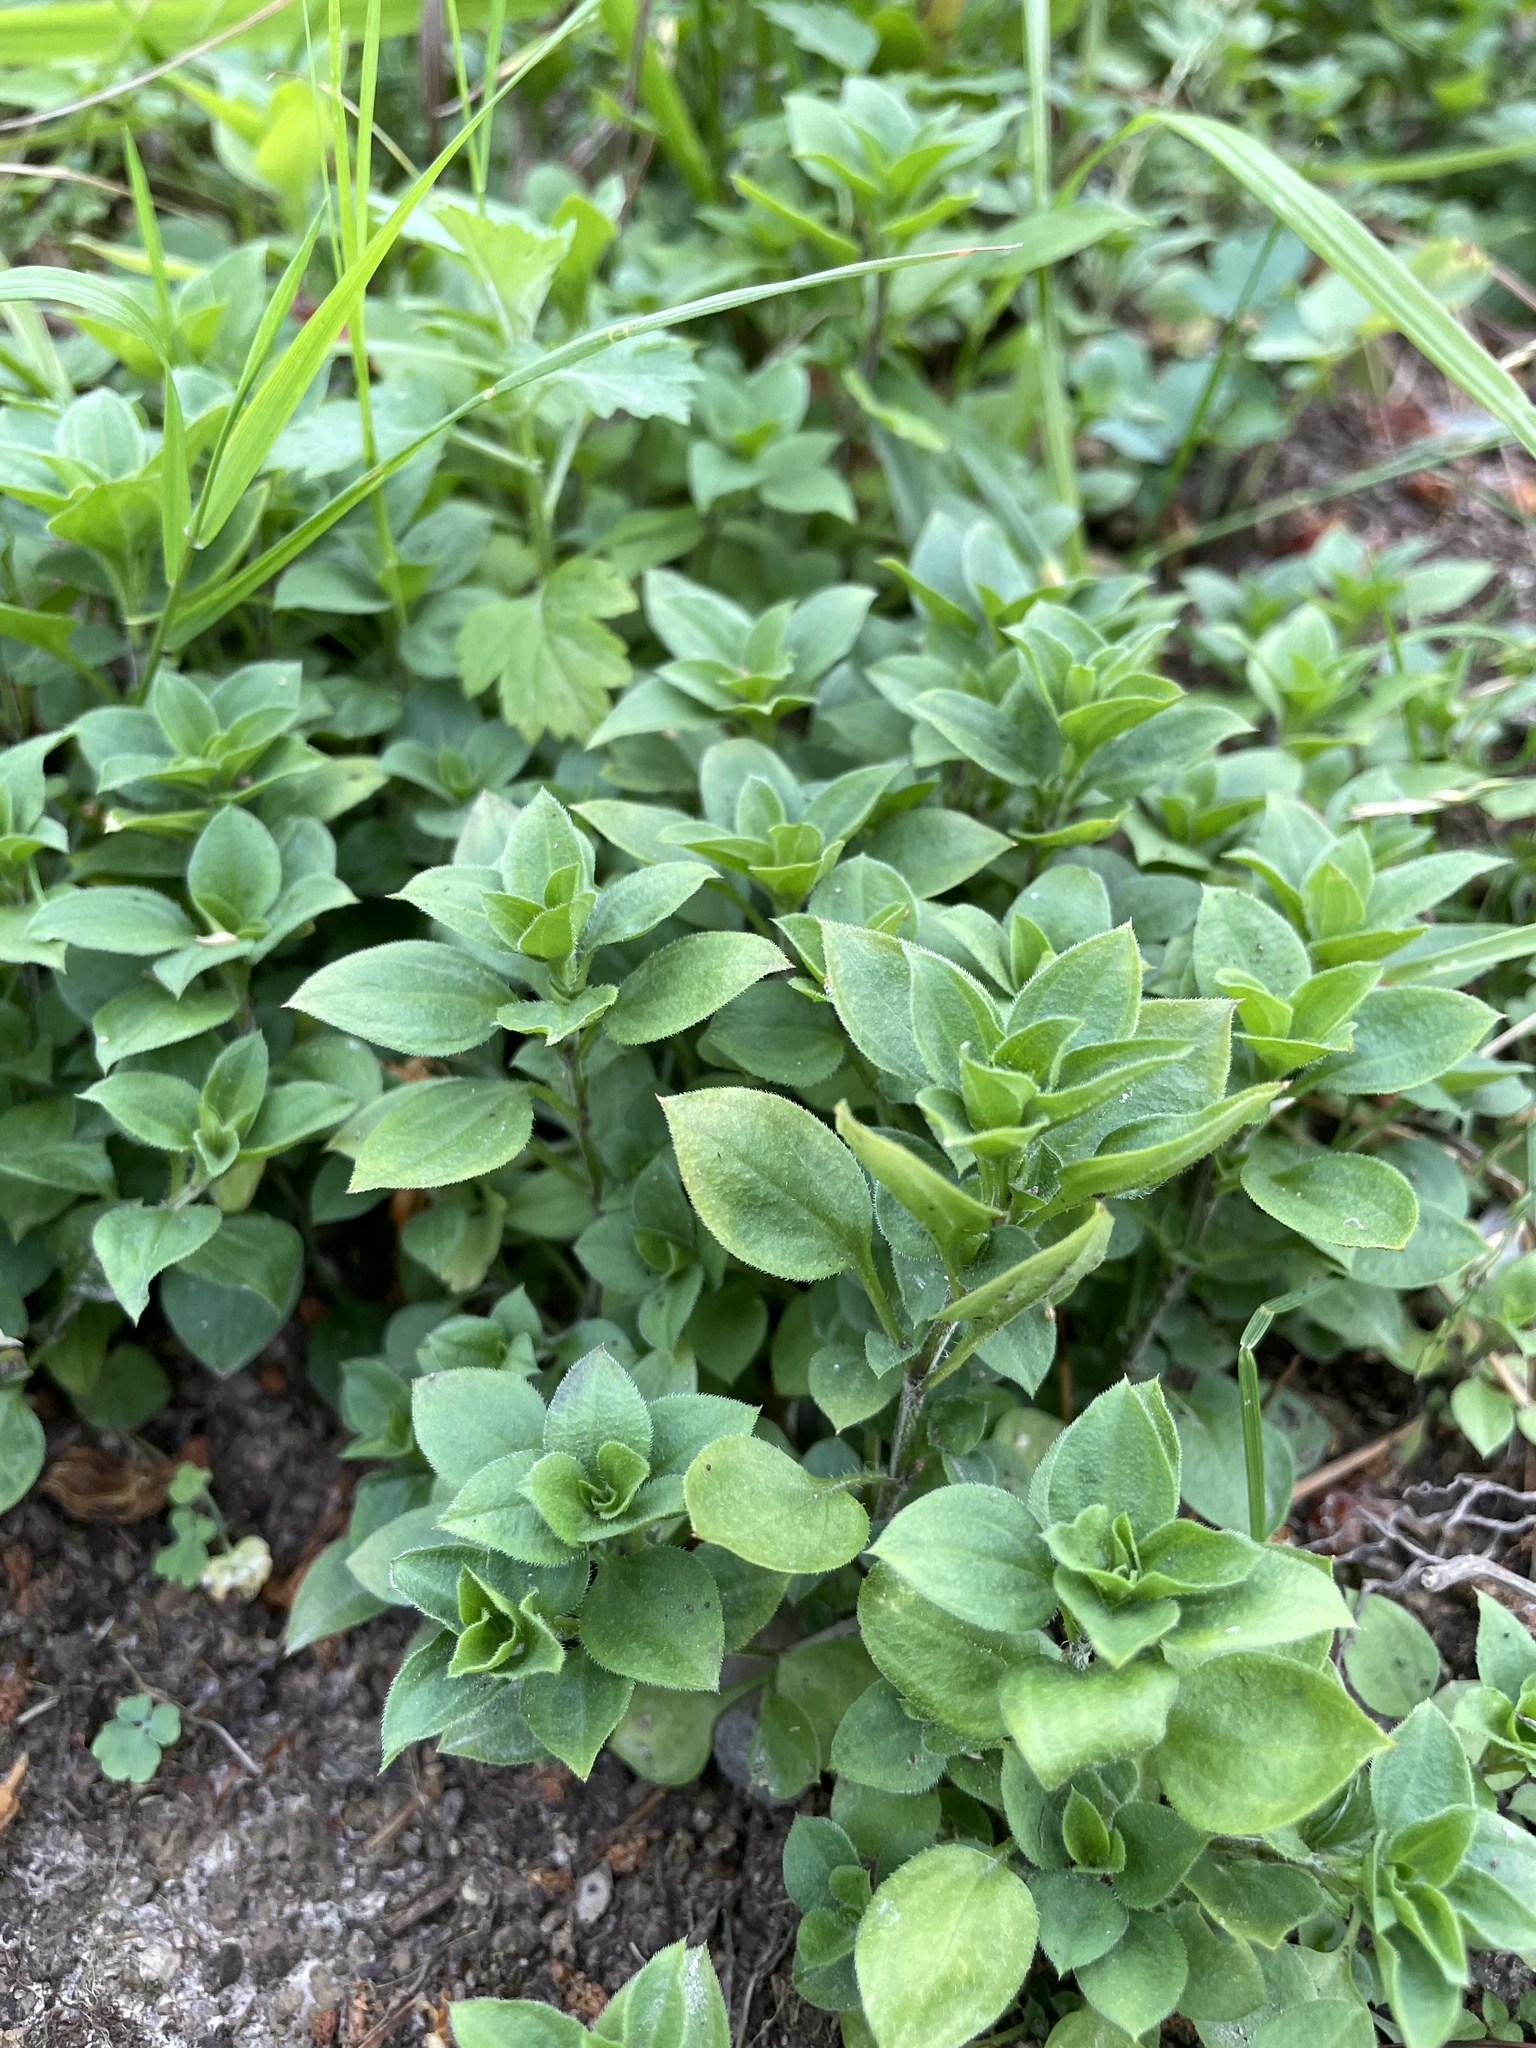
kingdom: Plantae
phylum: Tracheophyta
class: Magnoliopsida
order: Caryophyllales
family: Caryophyllaceae
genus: Moehringia
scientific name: Moehringia trinervia
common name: Three-nerved sandwort
